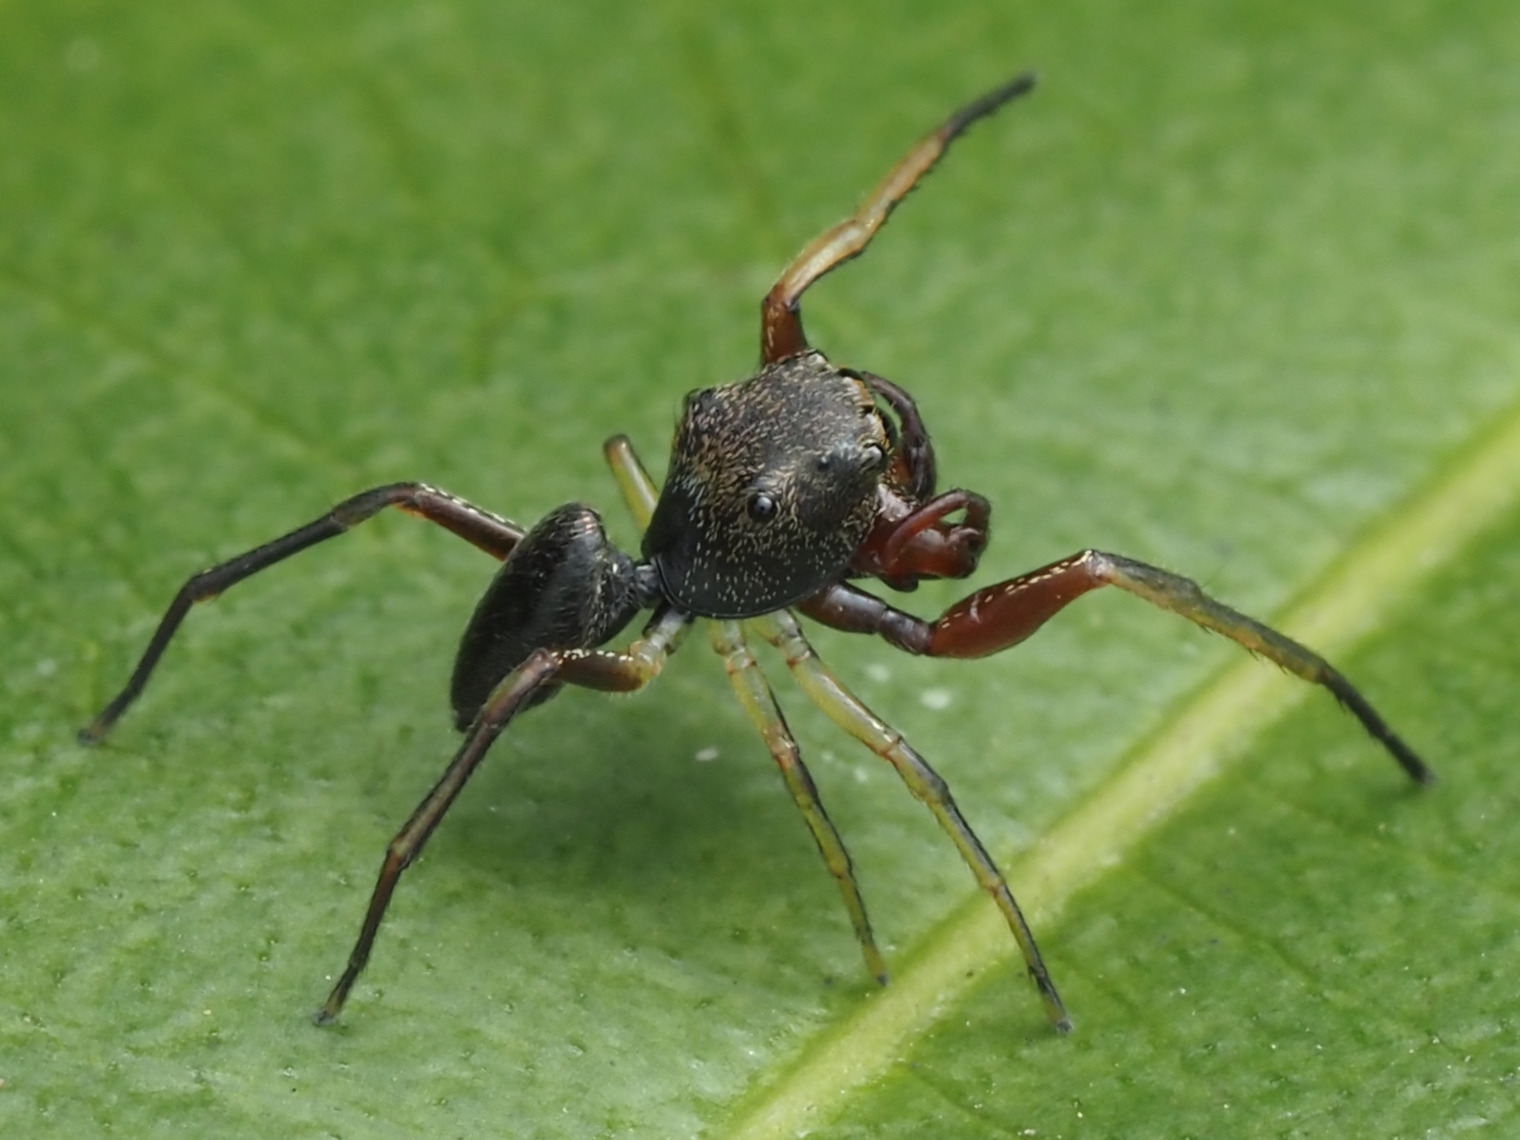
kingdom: Animalia
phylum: Arthropoda
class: Arachnida
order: Araneae
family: Salticidae
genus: Zygoballus
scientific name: Zygoballus
